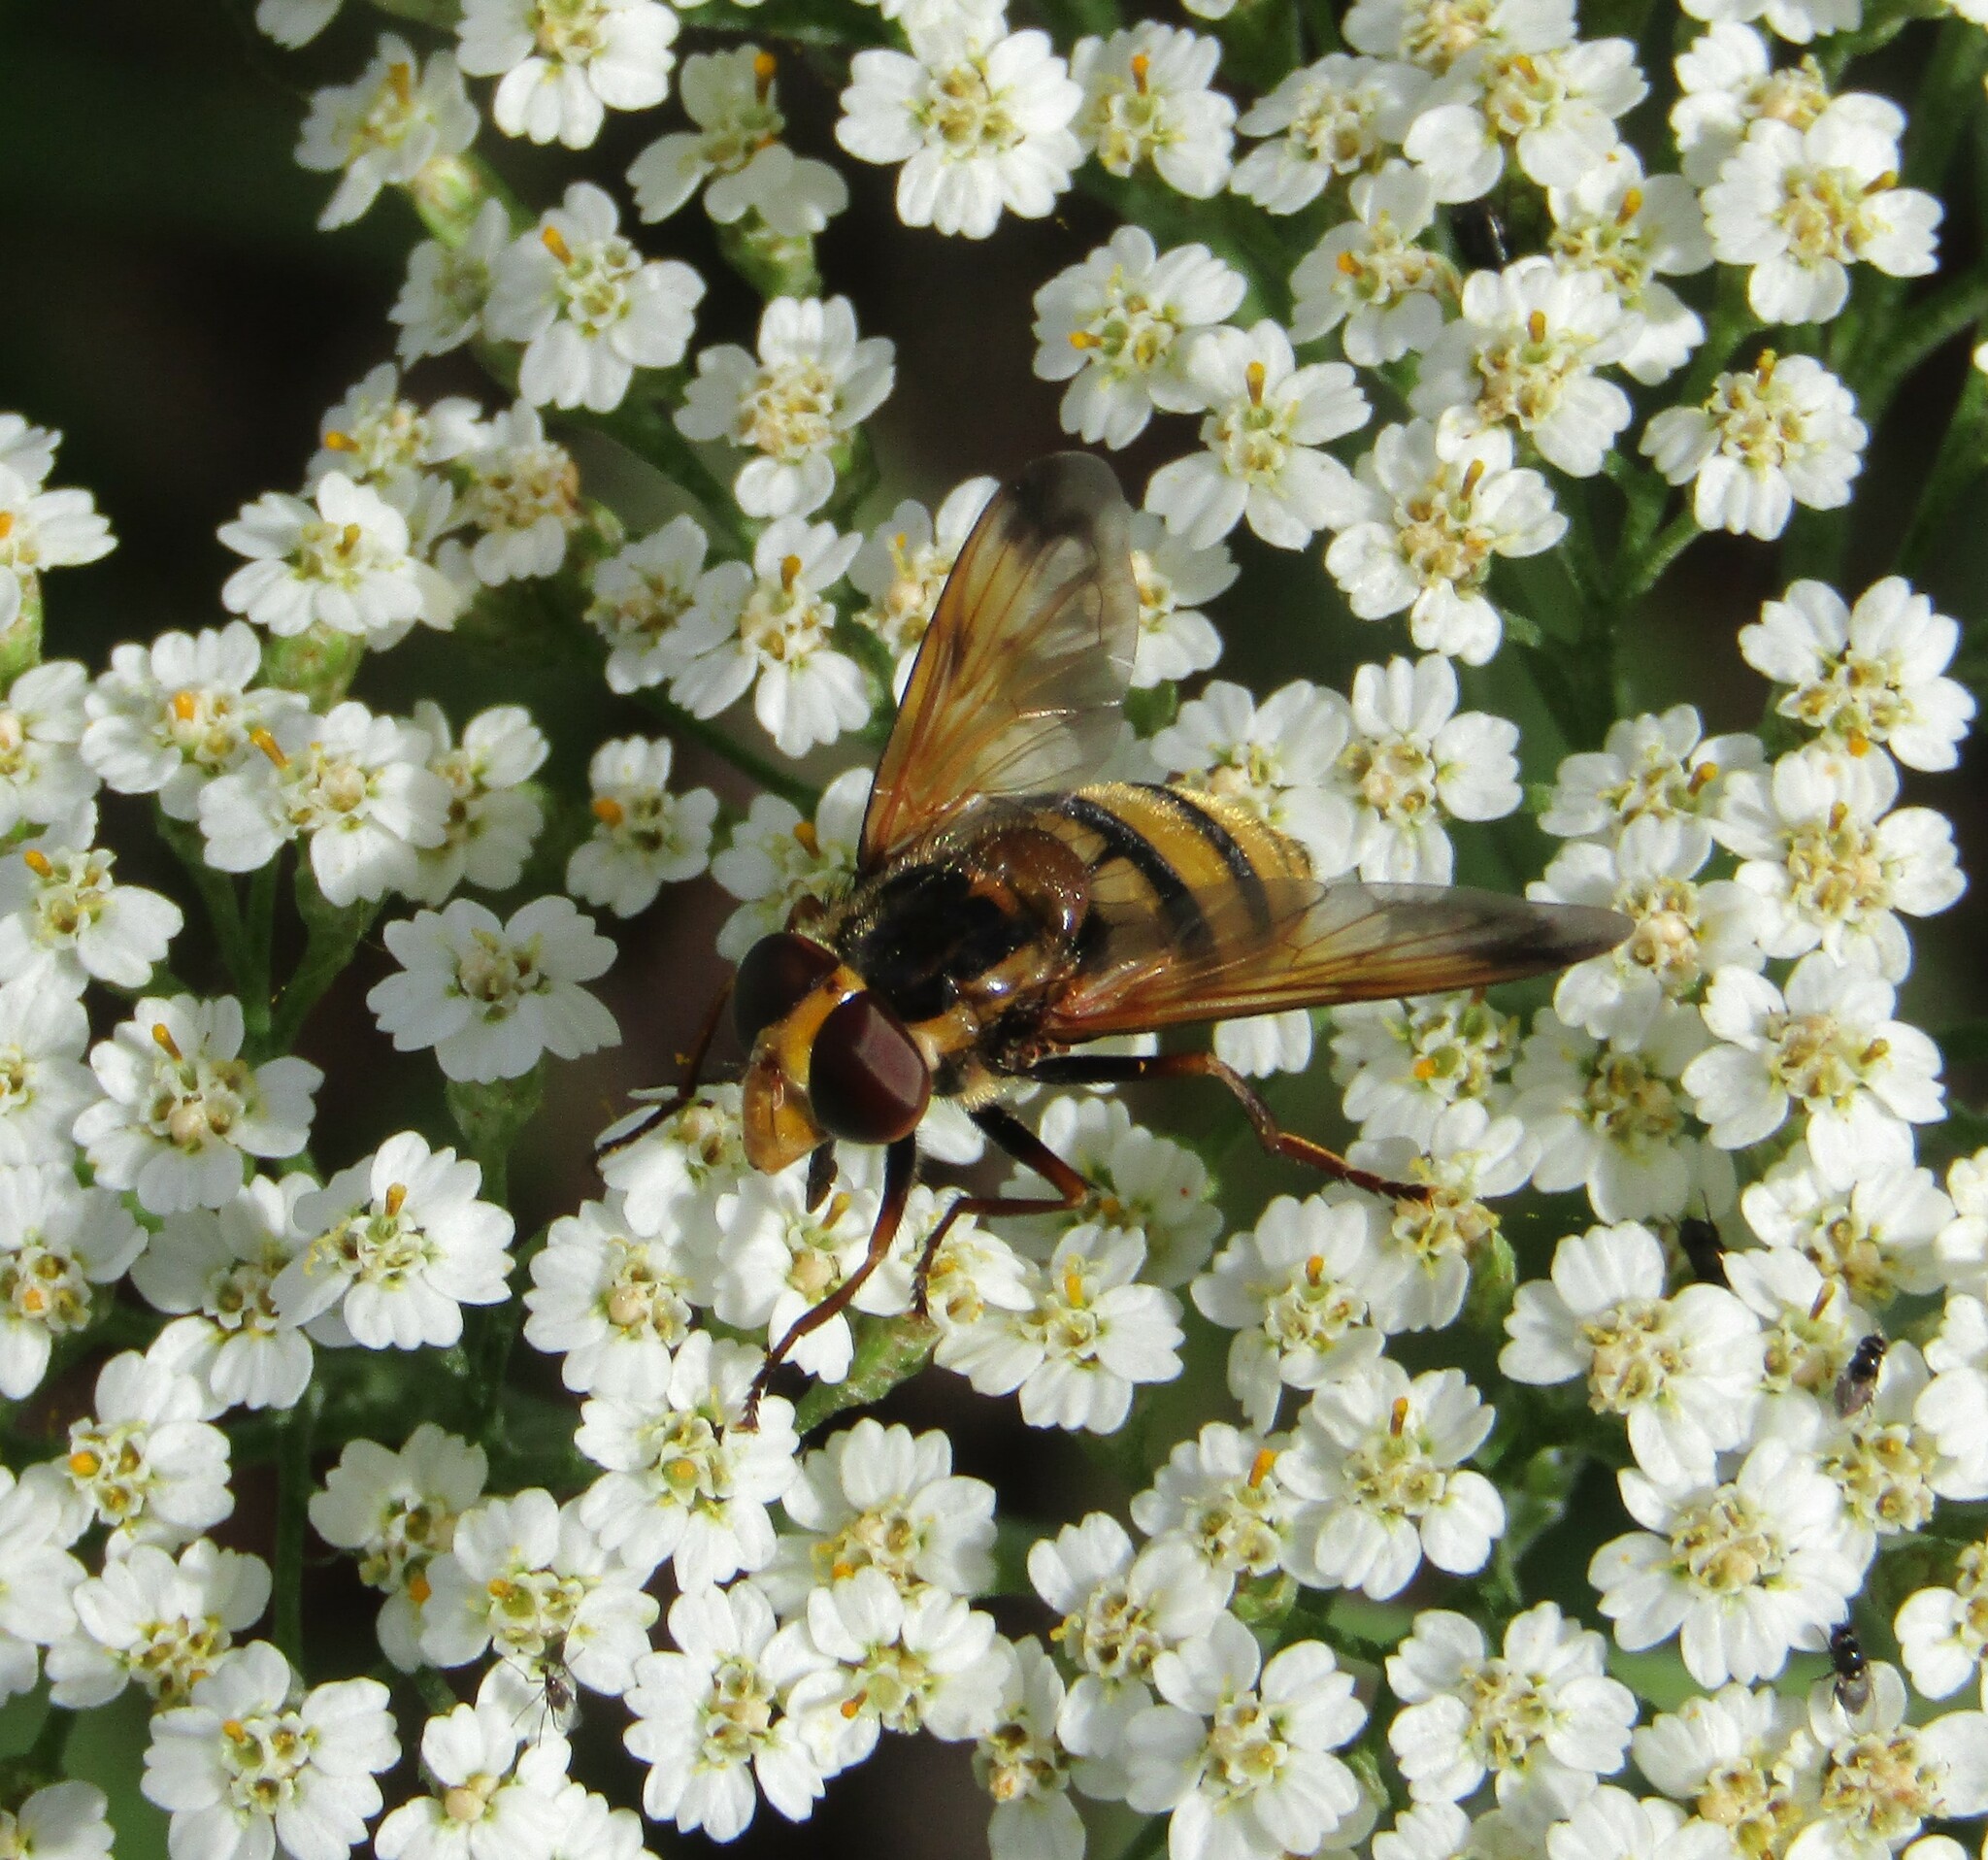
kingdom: Animalia
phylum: Arthropoda
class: Insecta
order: Diptera
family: Syrphidae
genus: Volucella
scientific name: Volucella inanis
